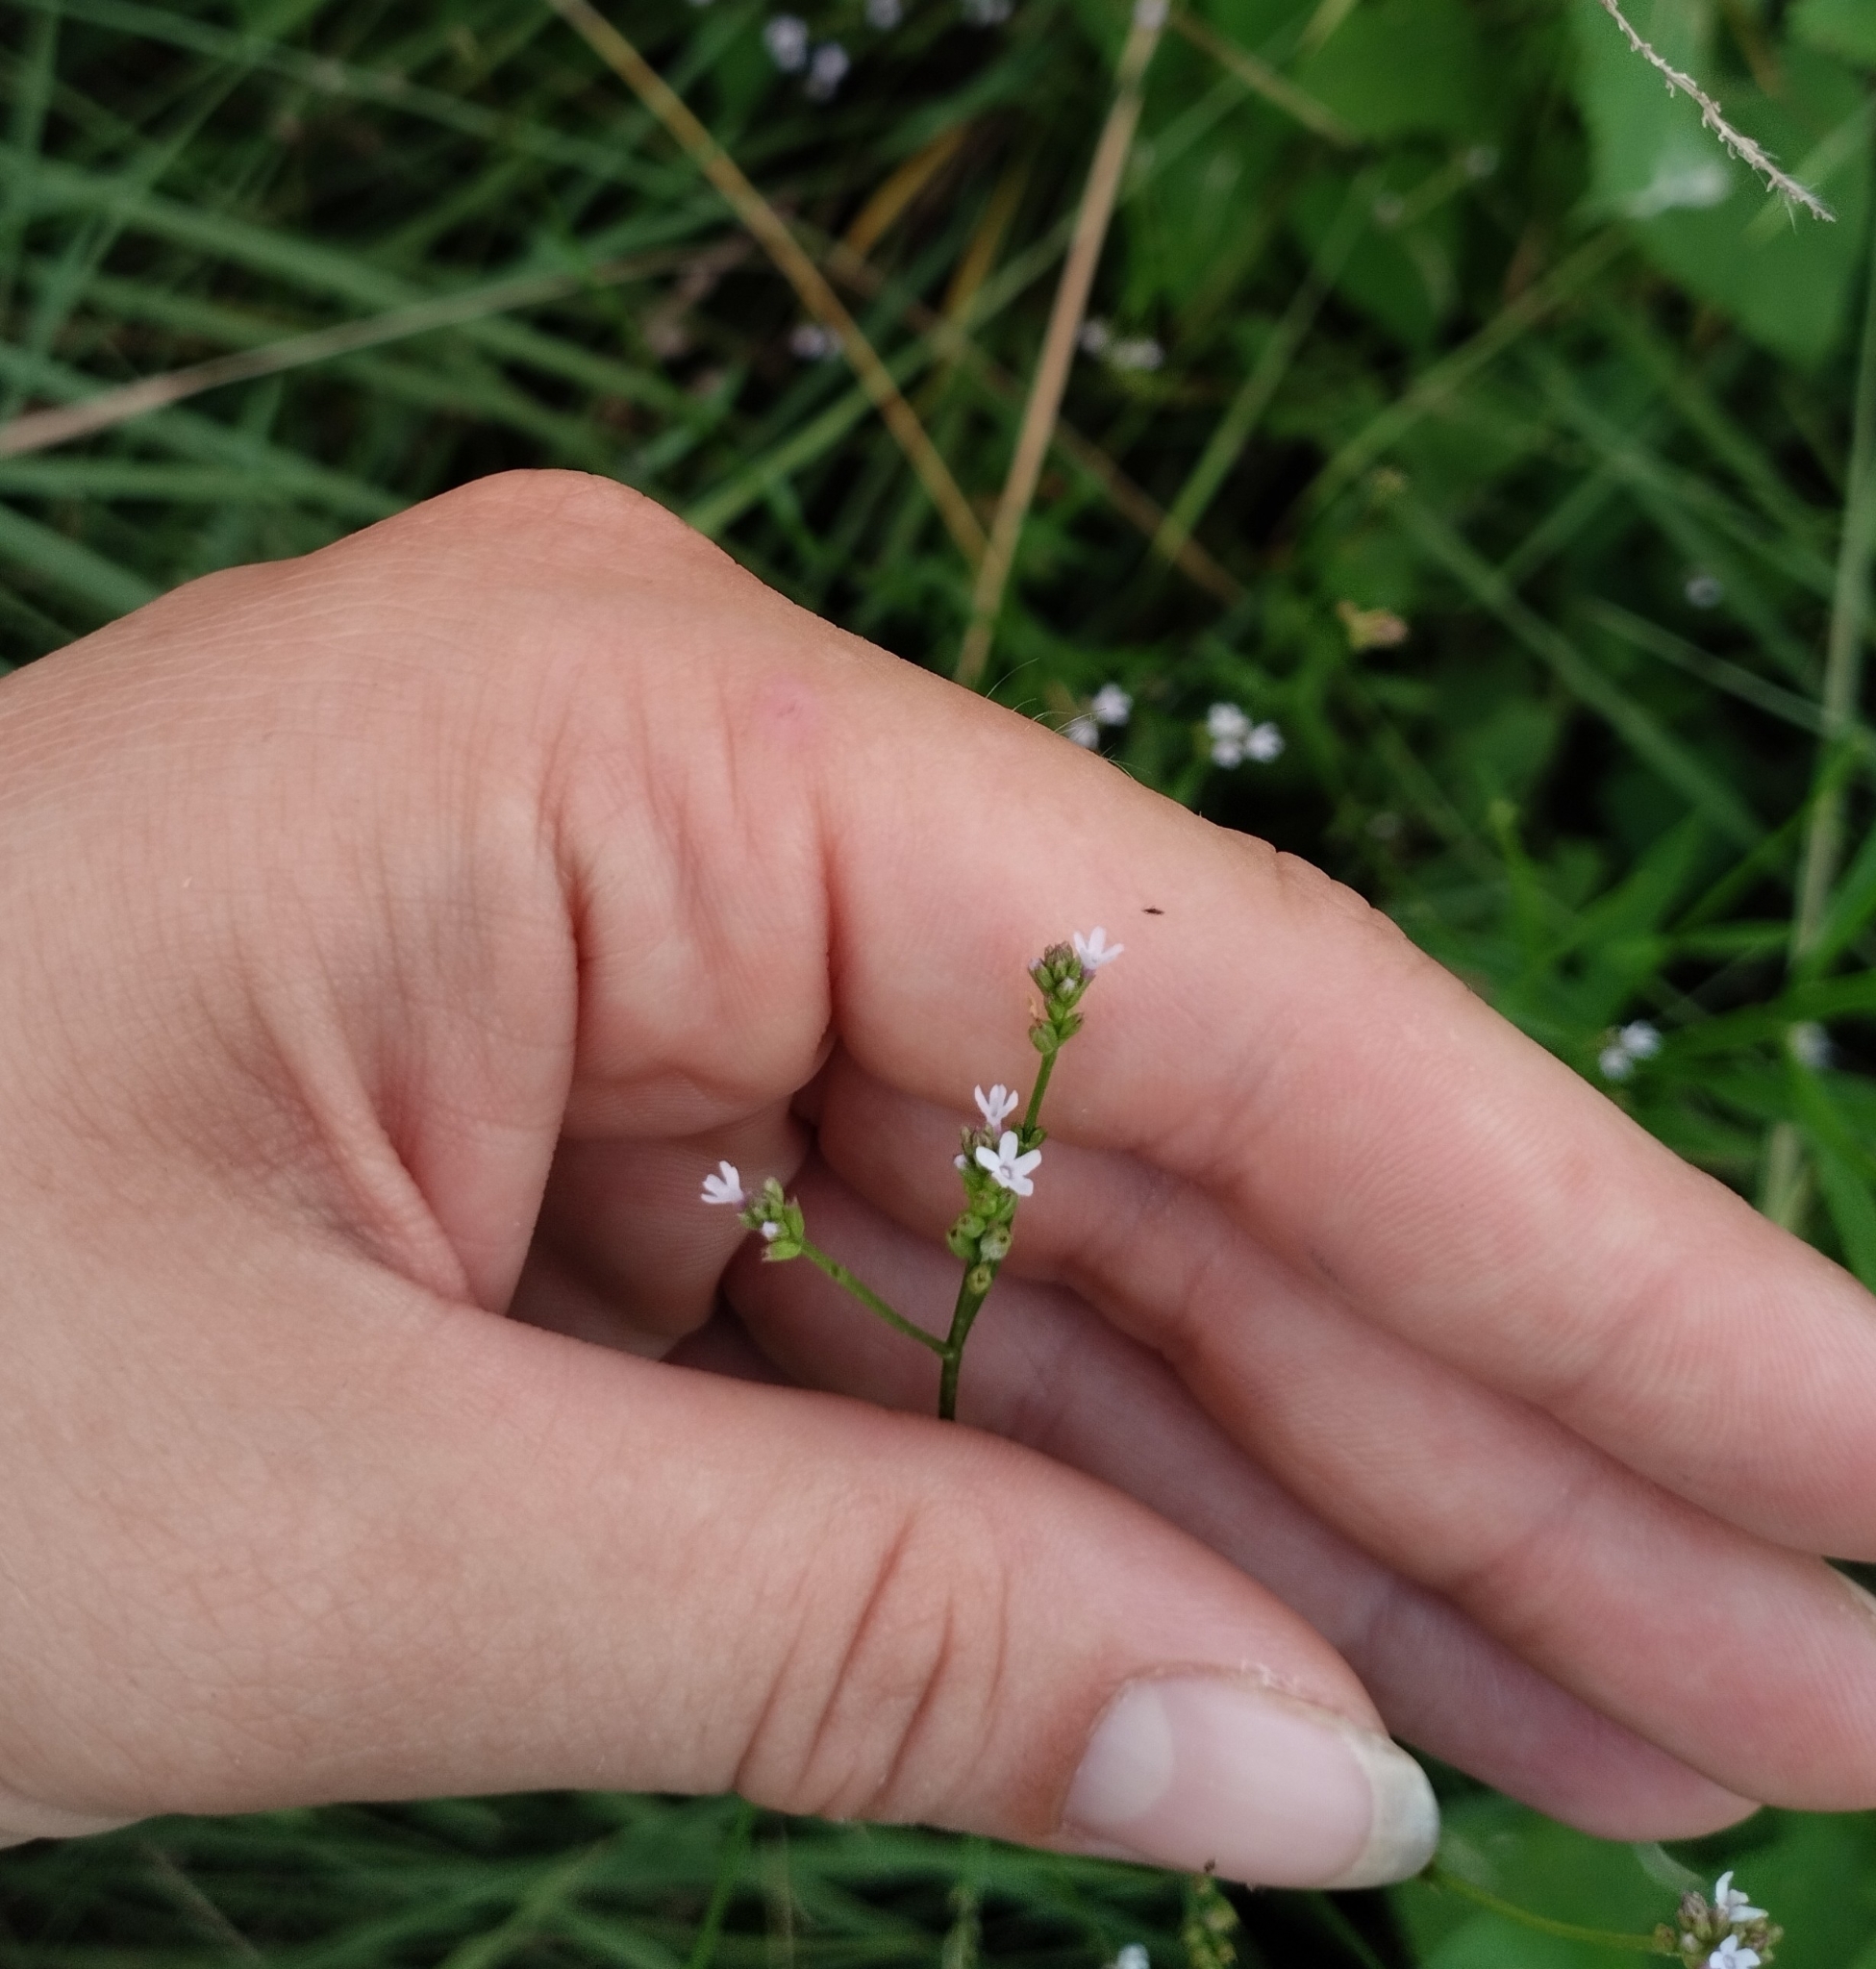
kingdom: Plantae
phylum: Tracheophyta
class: Magnoliopsida
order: Lamiales
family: Verbenaceae
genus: Verbena
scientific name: Verbena montevidensis
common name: Uruguayan vervain
